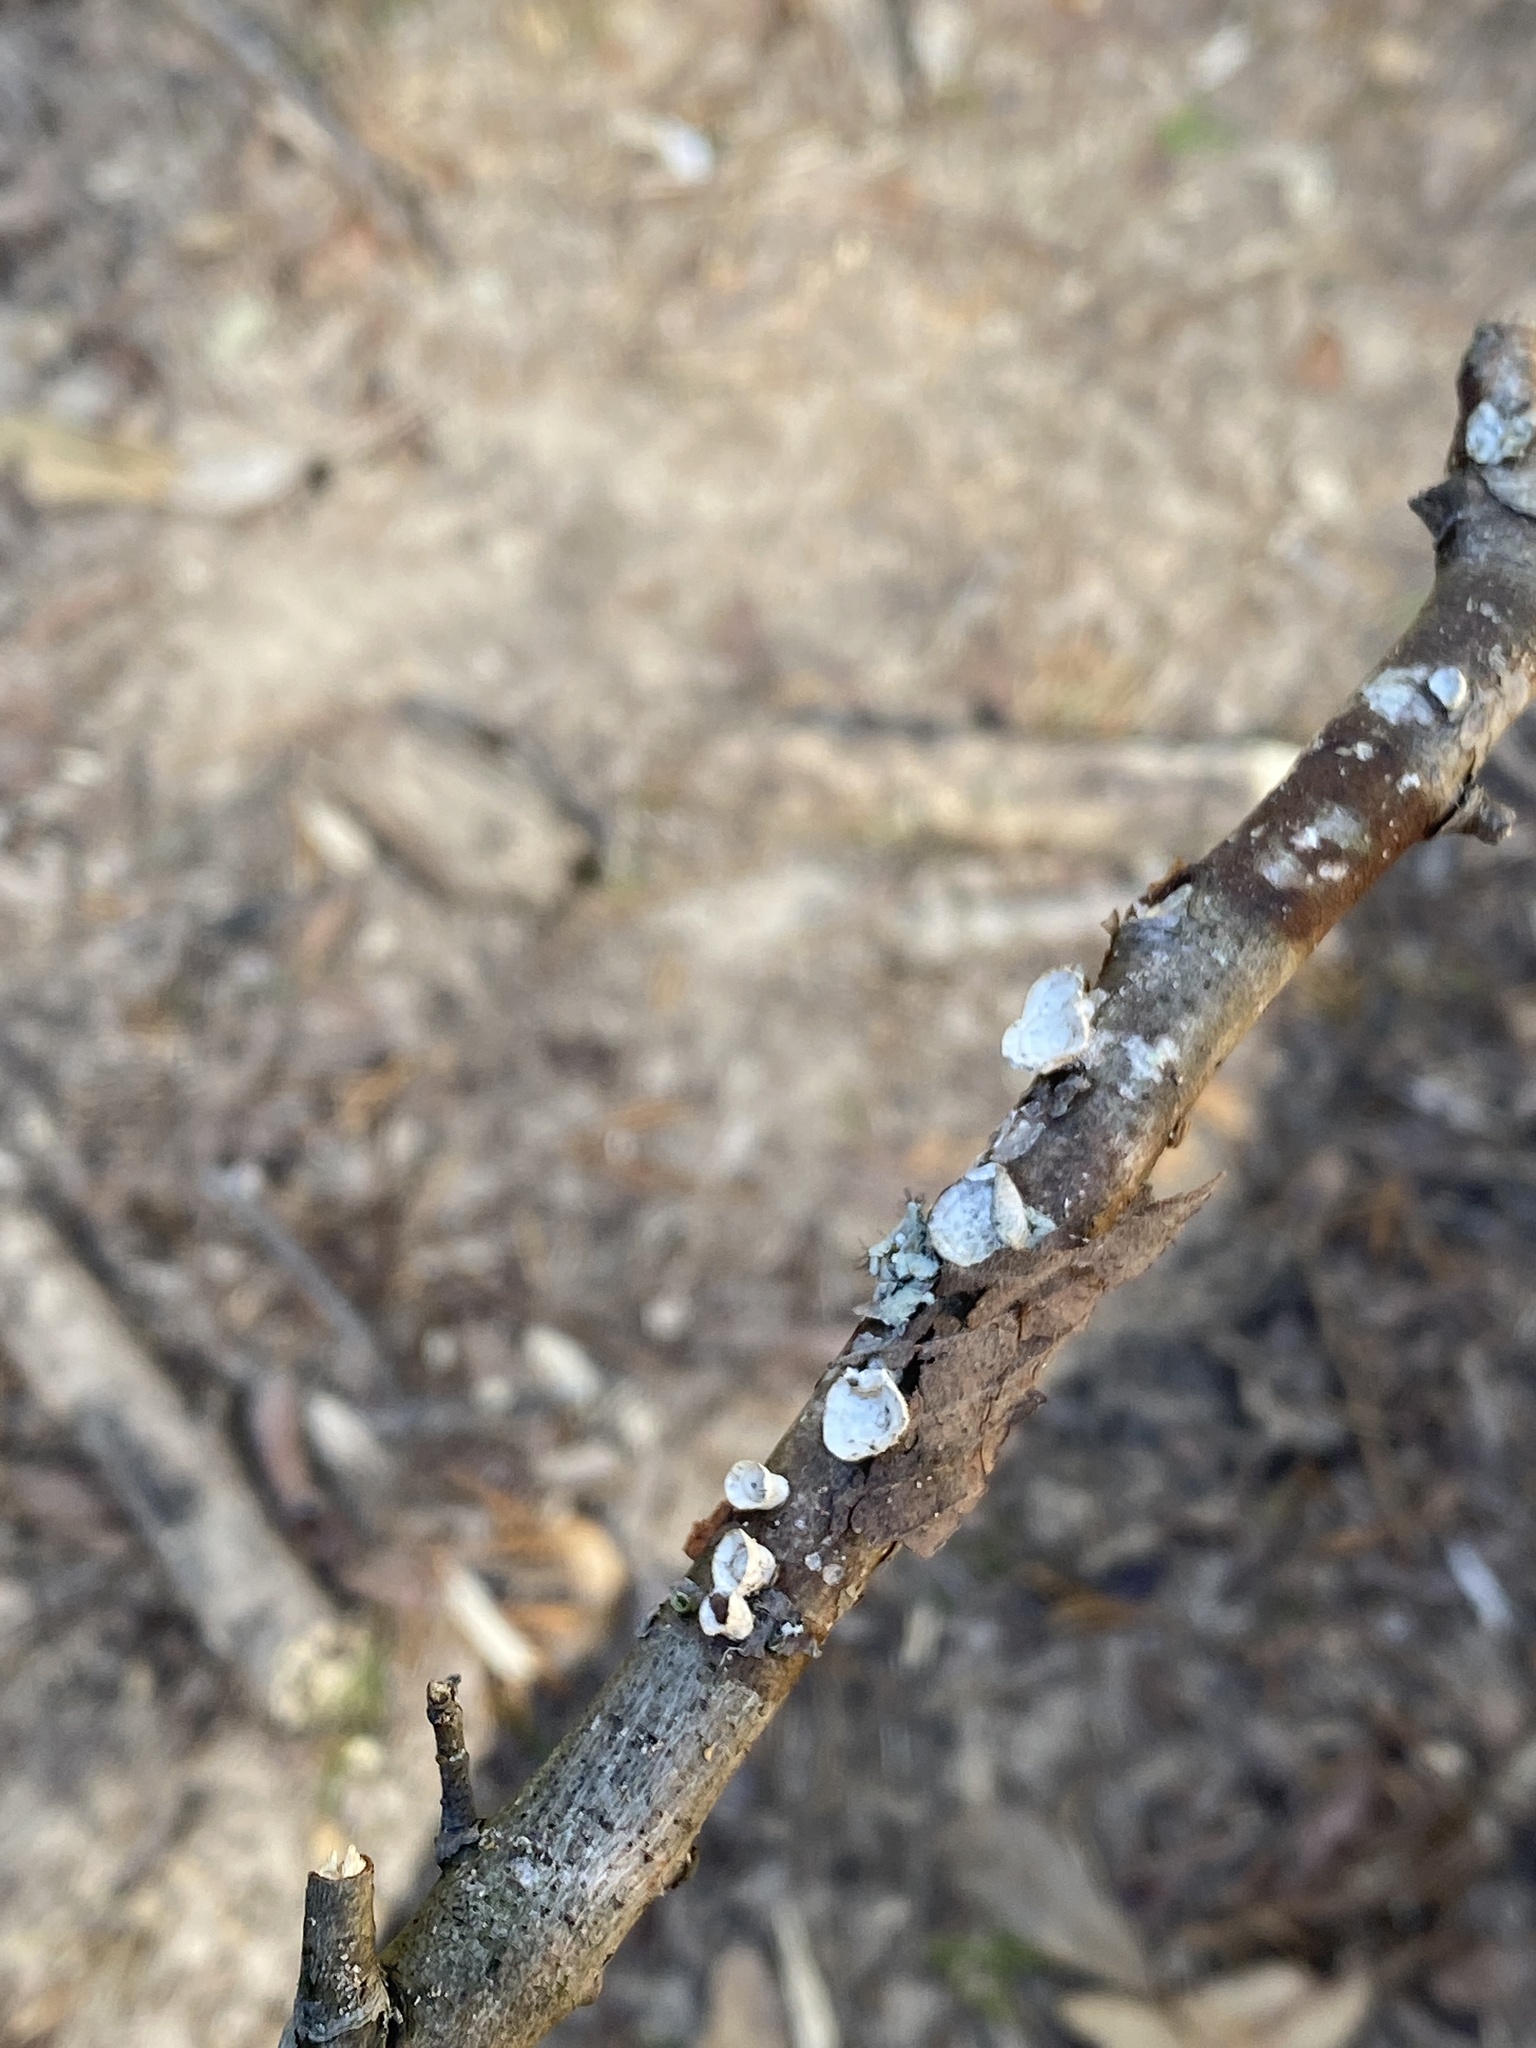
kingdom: Fungi
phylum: Basidiomycota
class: Agaricomycetes
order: Polyporales
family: Polyporaceae
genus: Poronidulus
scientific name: Poronidulus conchifer
